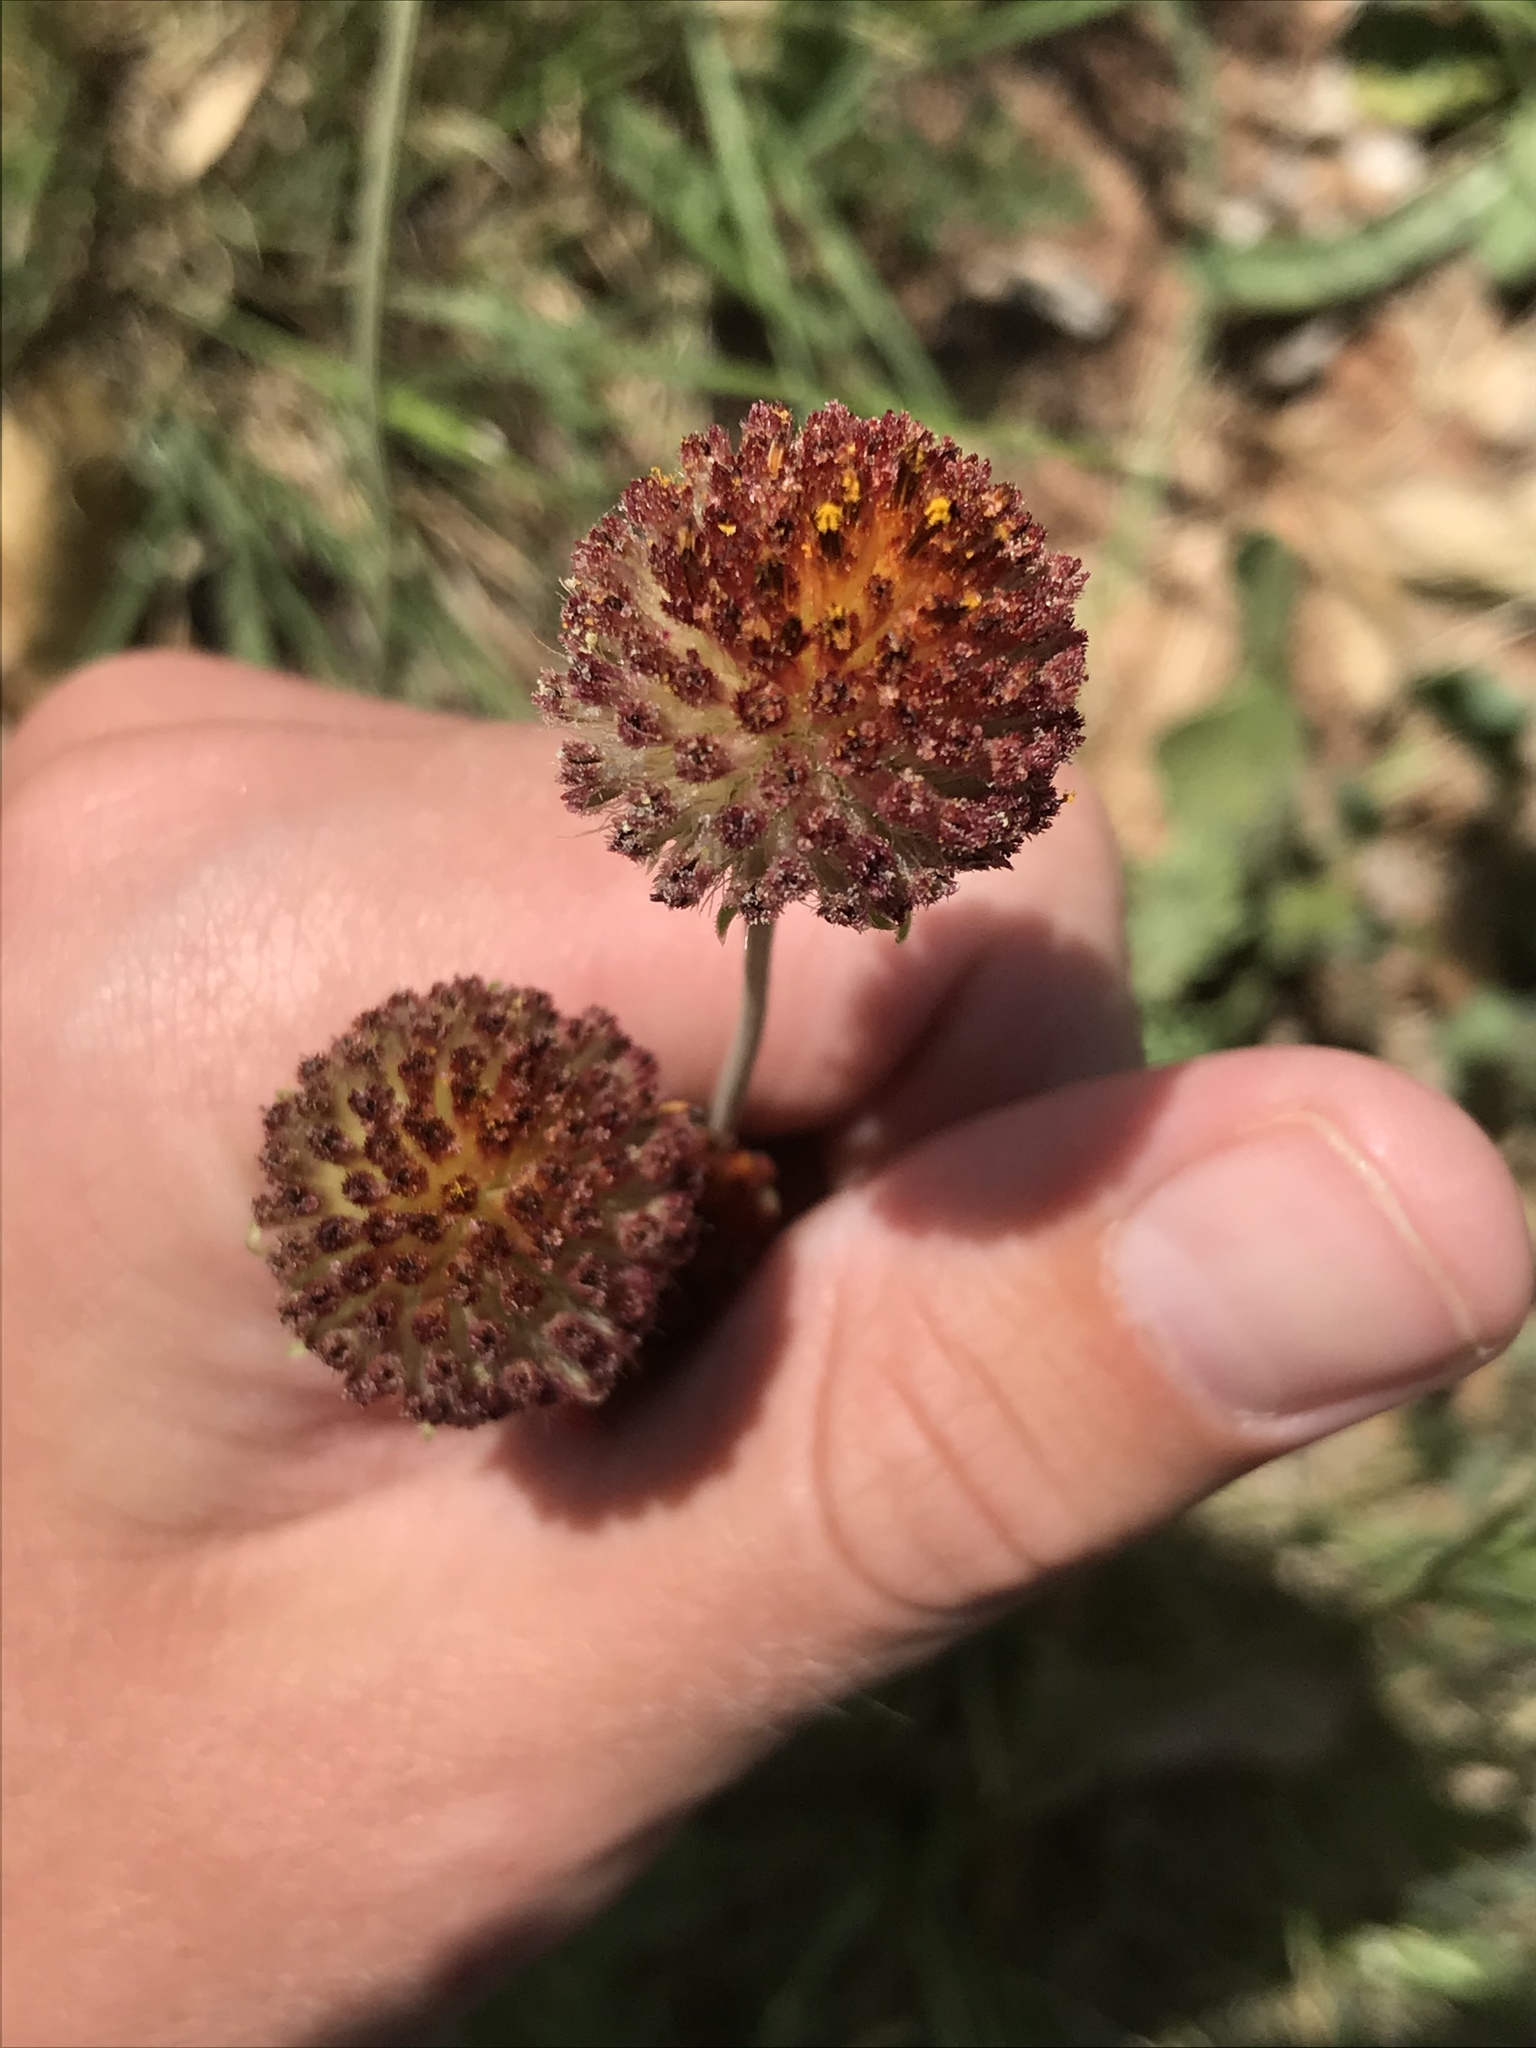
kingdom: Plantae
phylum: Tracheophyta
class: Magnoliopsida
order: Asterales
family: Asteraceae
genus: Gaillardia
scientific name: Gaillardia suavis
